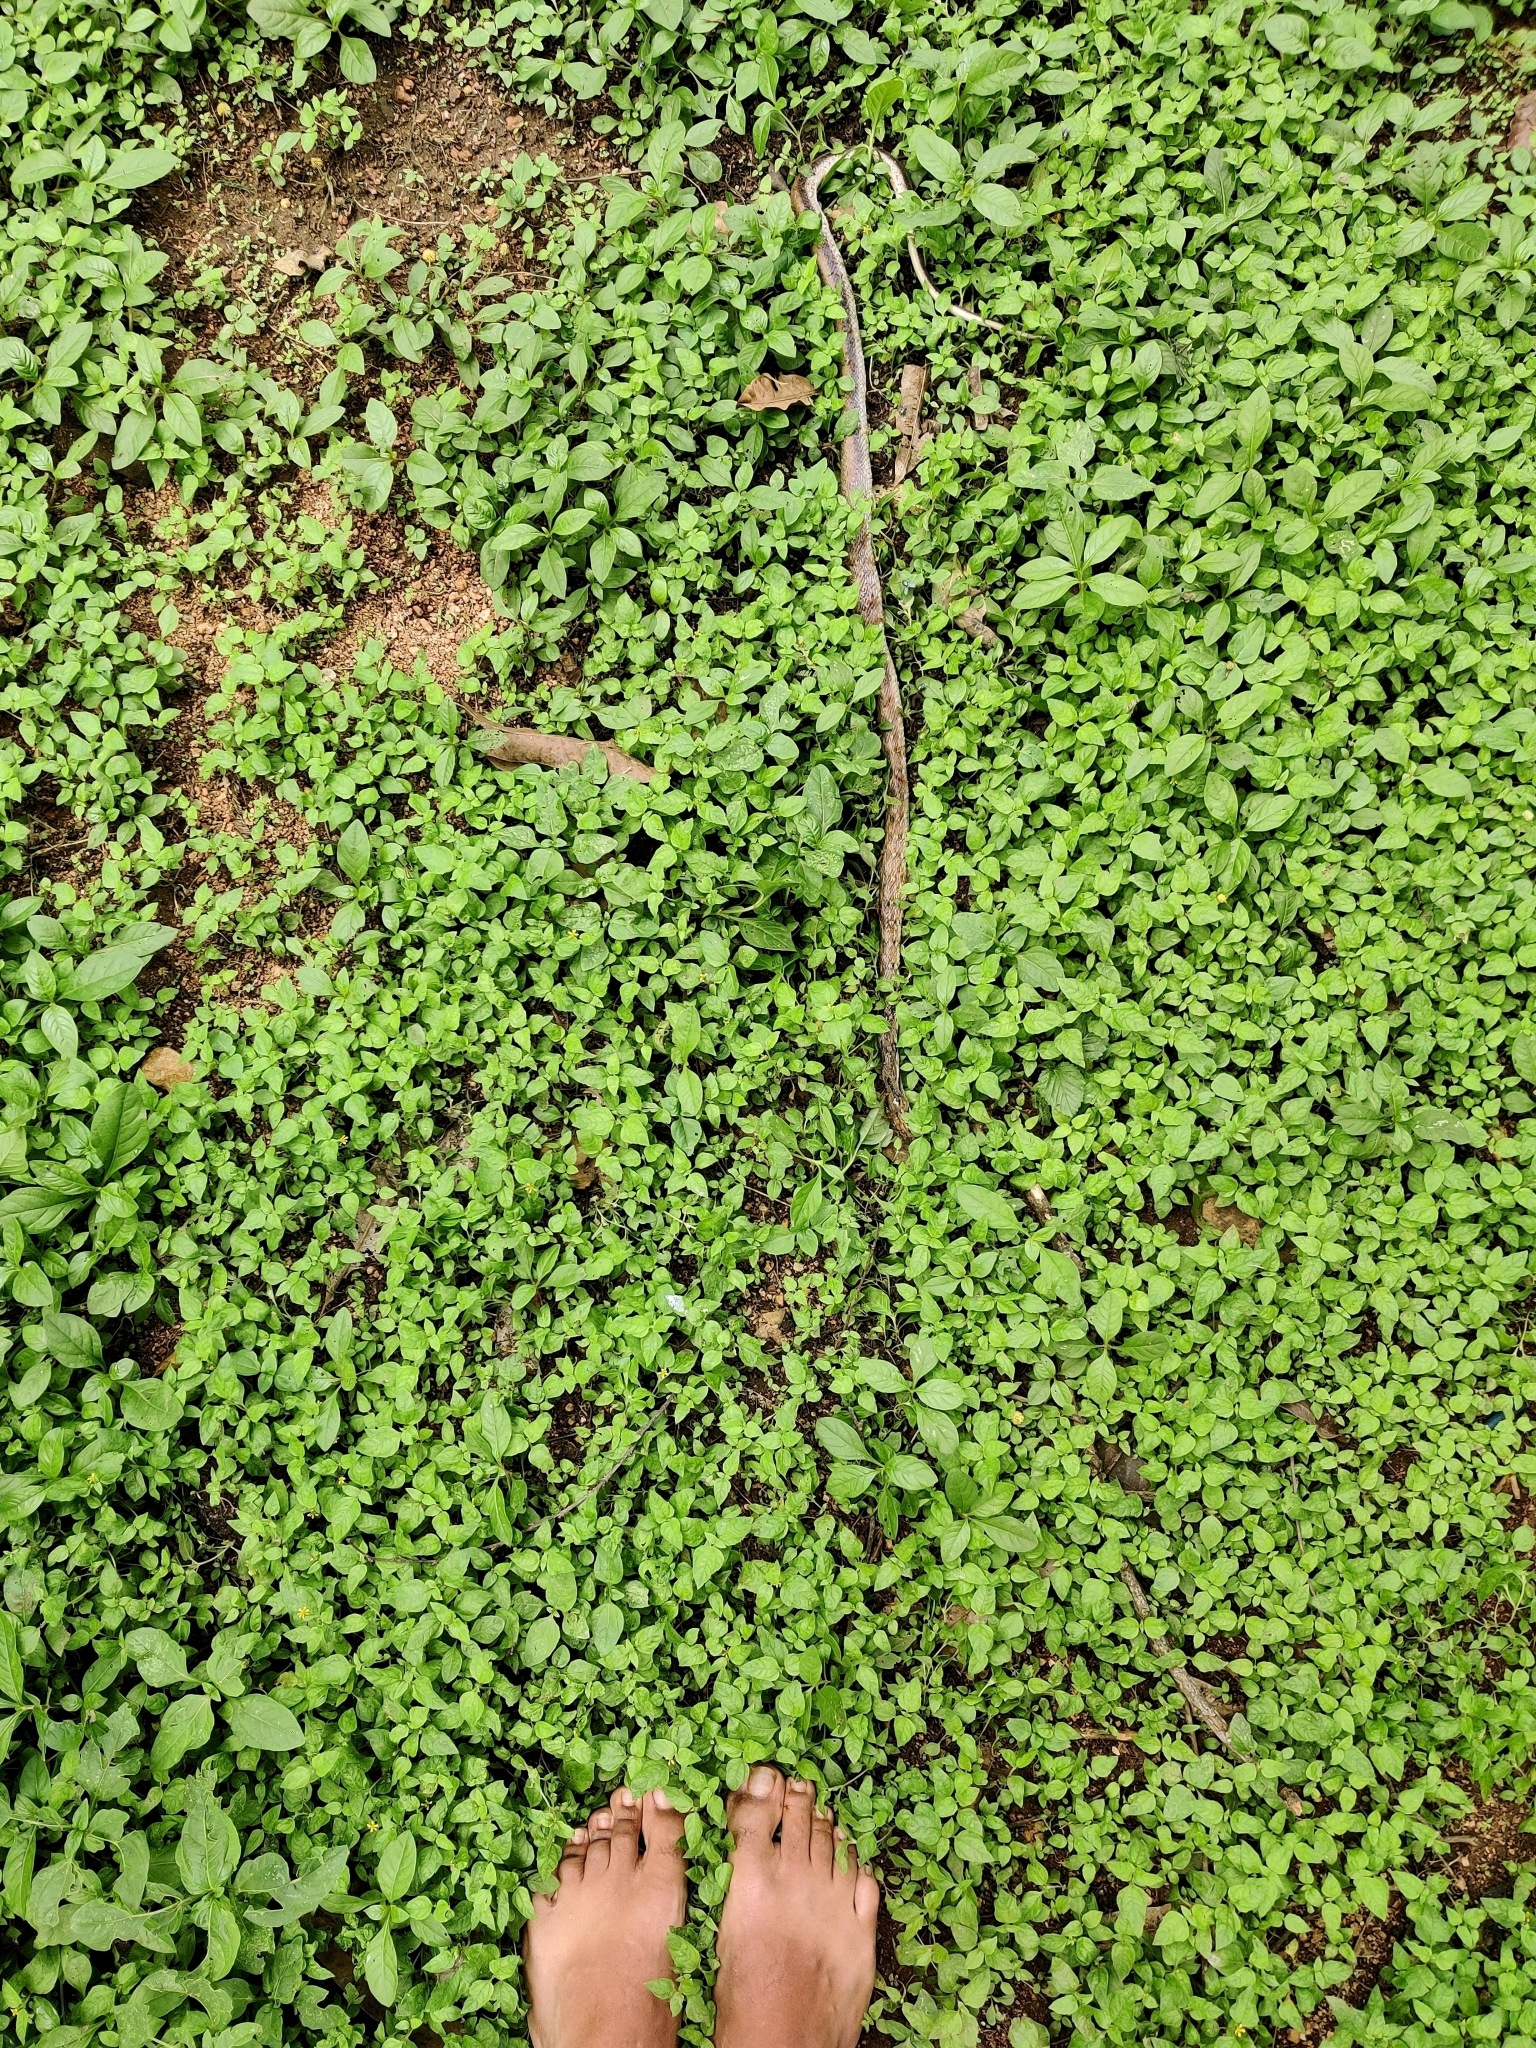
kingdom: Animalia
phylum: Chordata
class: Squamata
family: Colubridae
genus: Coelognathus
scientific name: Coelognathus helena
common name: Trinket snake
